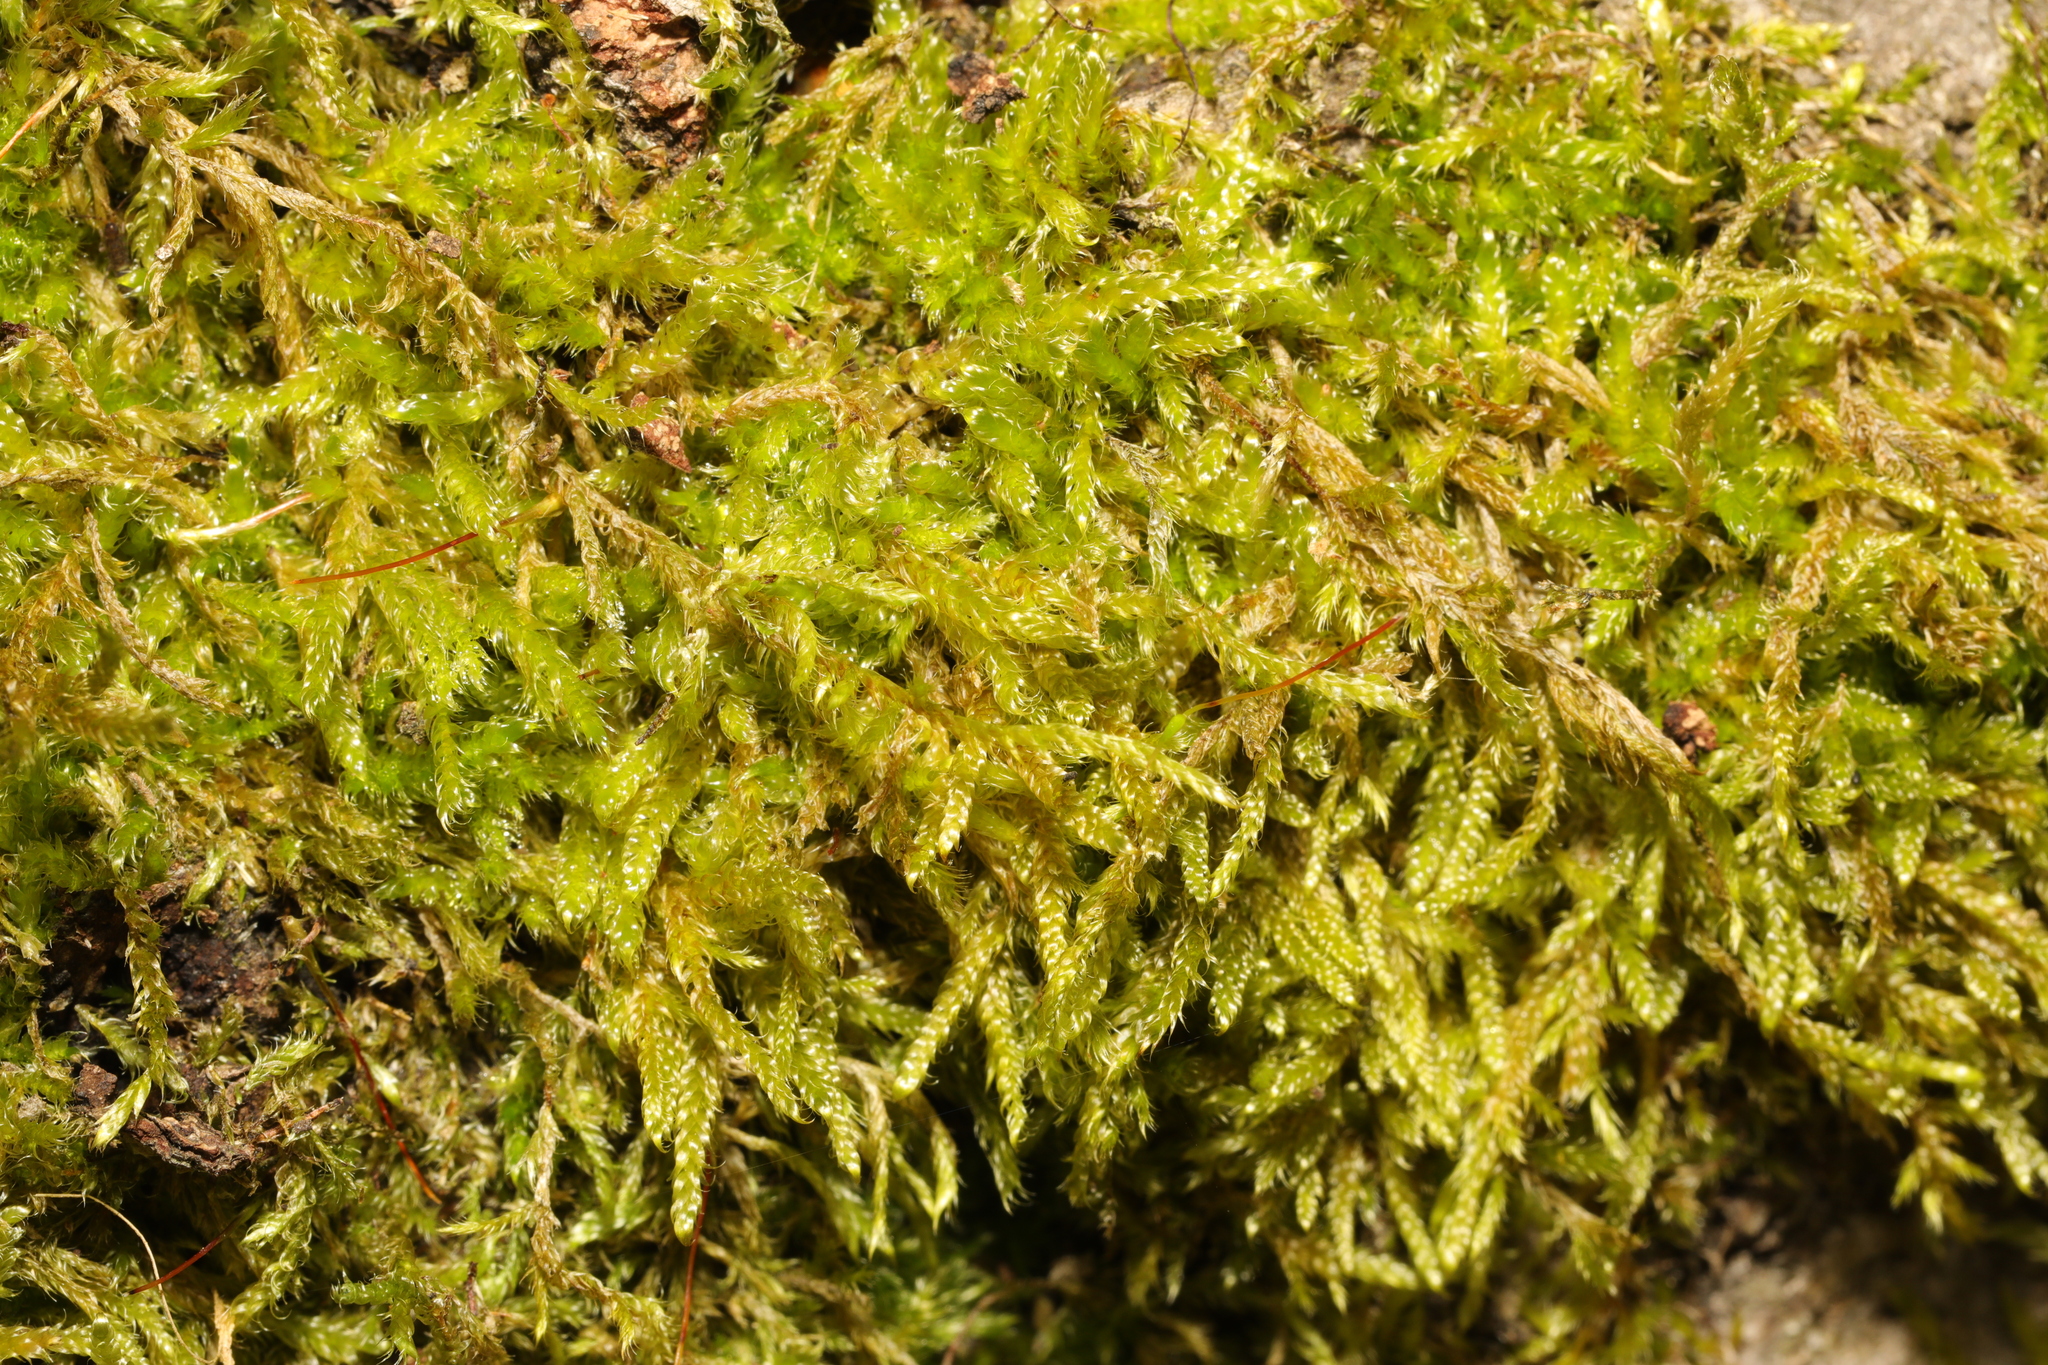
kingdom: Plantae
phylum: Bryophyta
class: Bryopsida
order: Hypnales
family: Hypnaceae
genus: Hypnum
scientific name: Hypnum cupressiforme
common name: Cypress-leaved plait-moss
